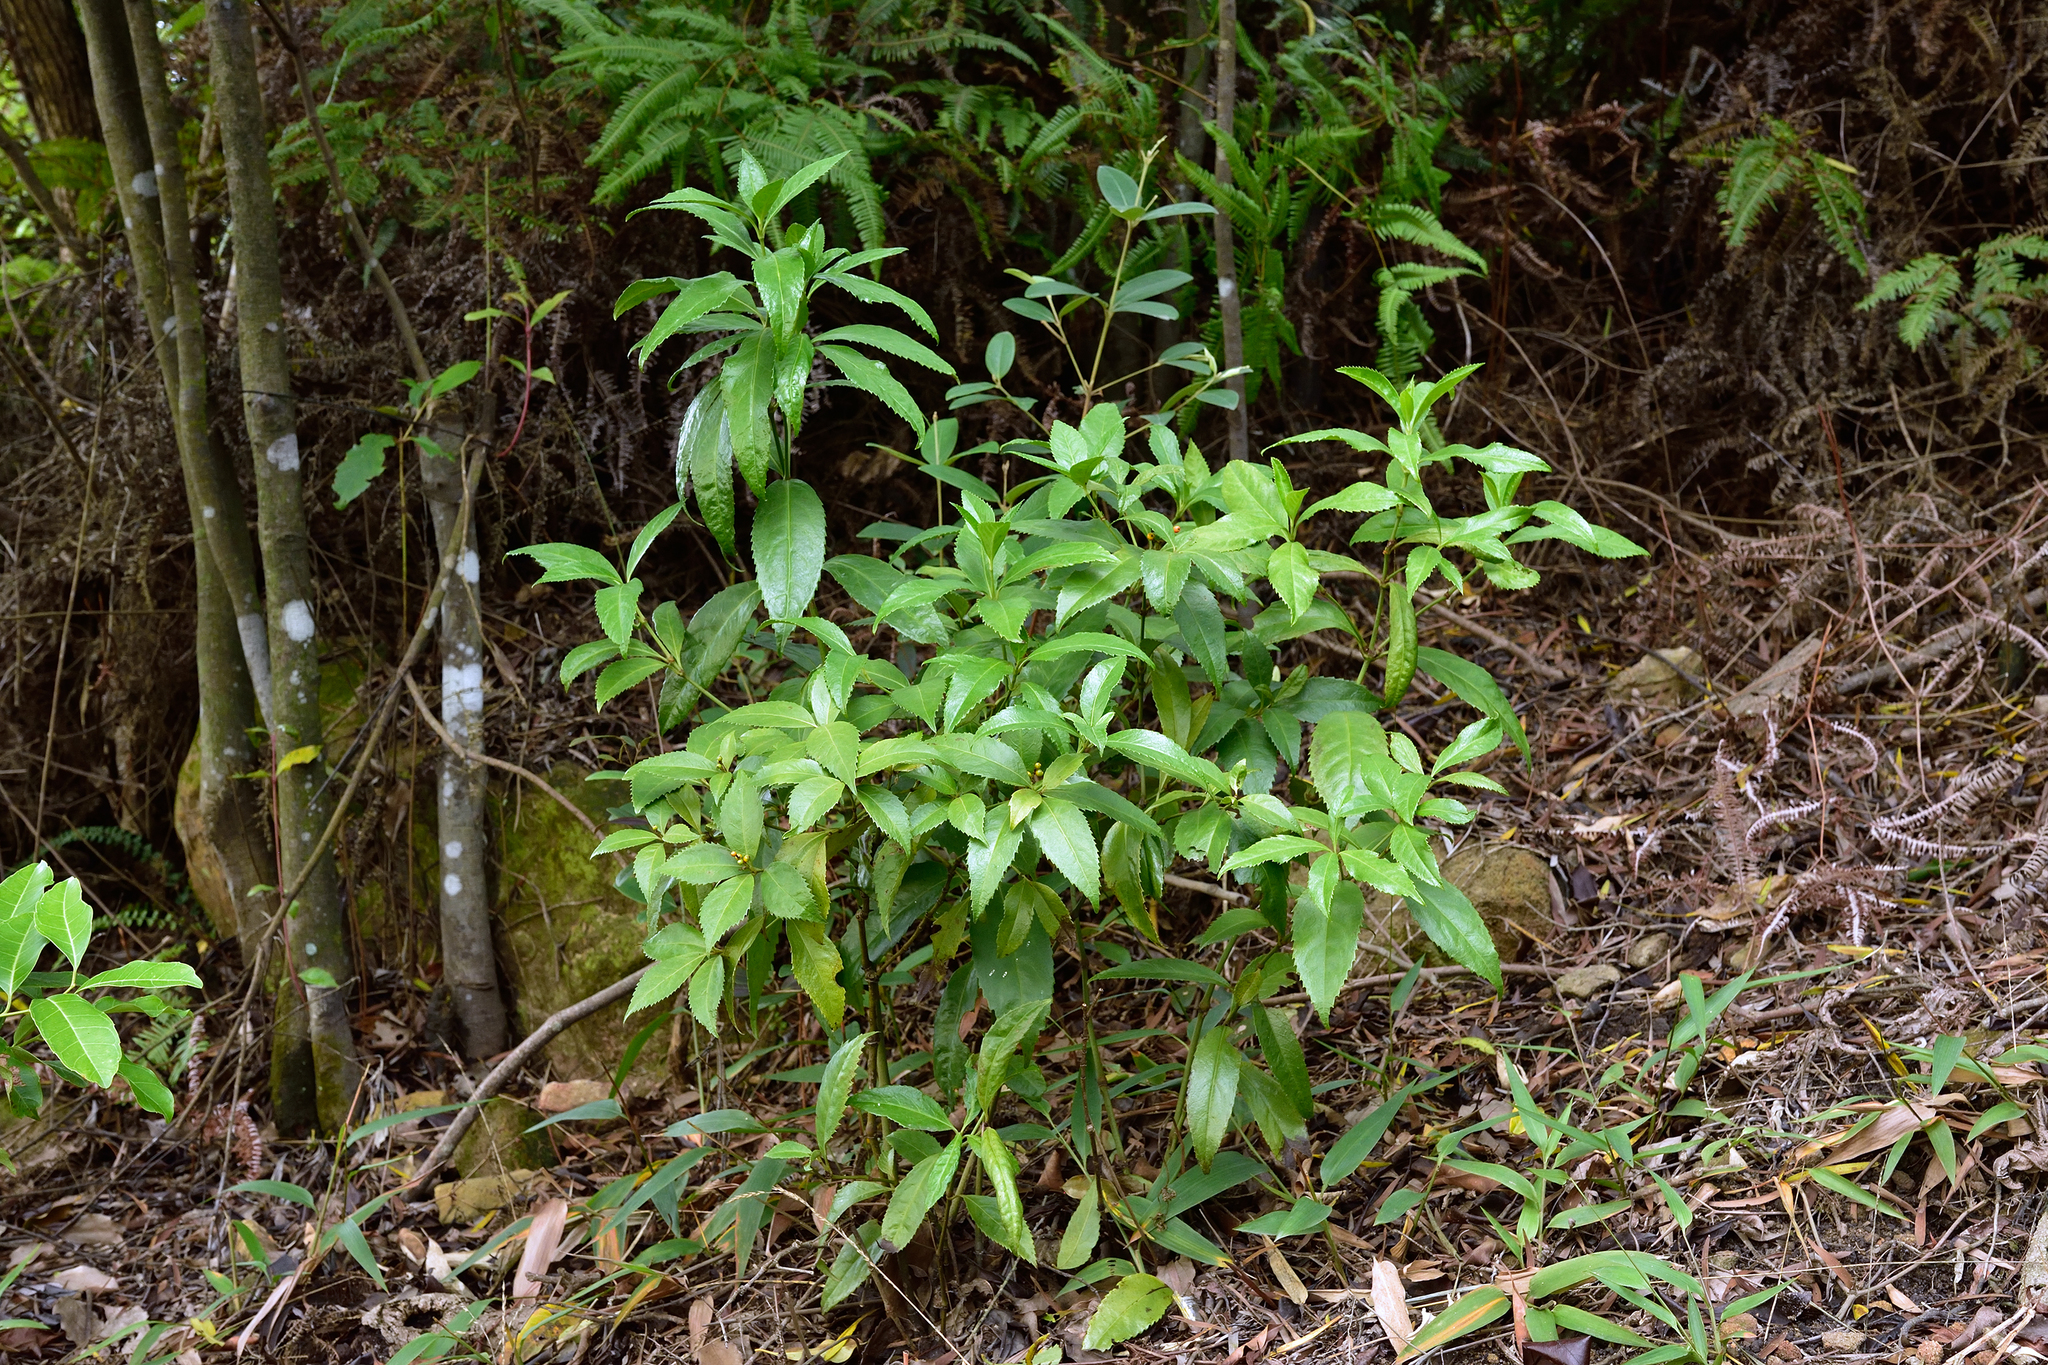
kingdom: Plantae
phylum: Tracheophyta
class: Magnoliopsida
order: Chloranthales
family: Chloranthaceae
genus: Sarcandra
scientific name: Sarcandra glabra
